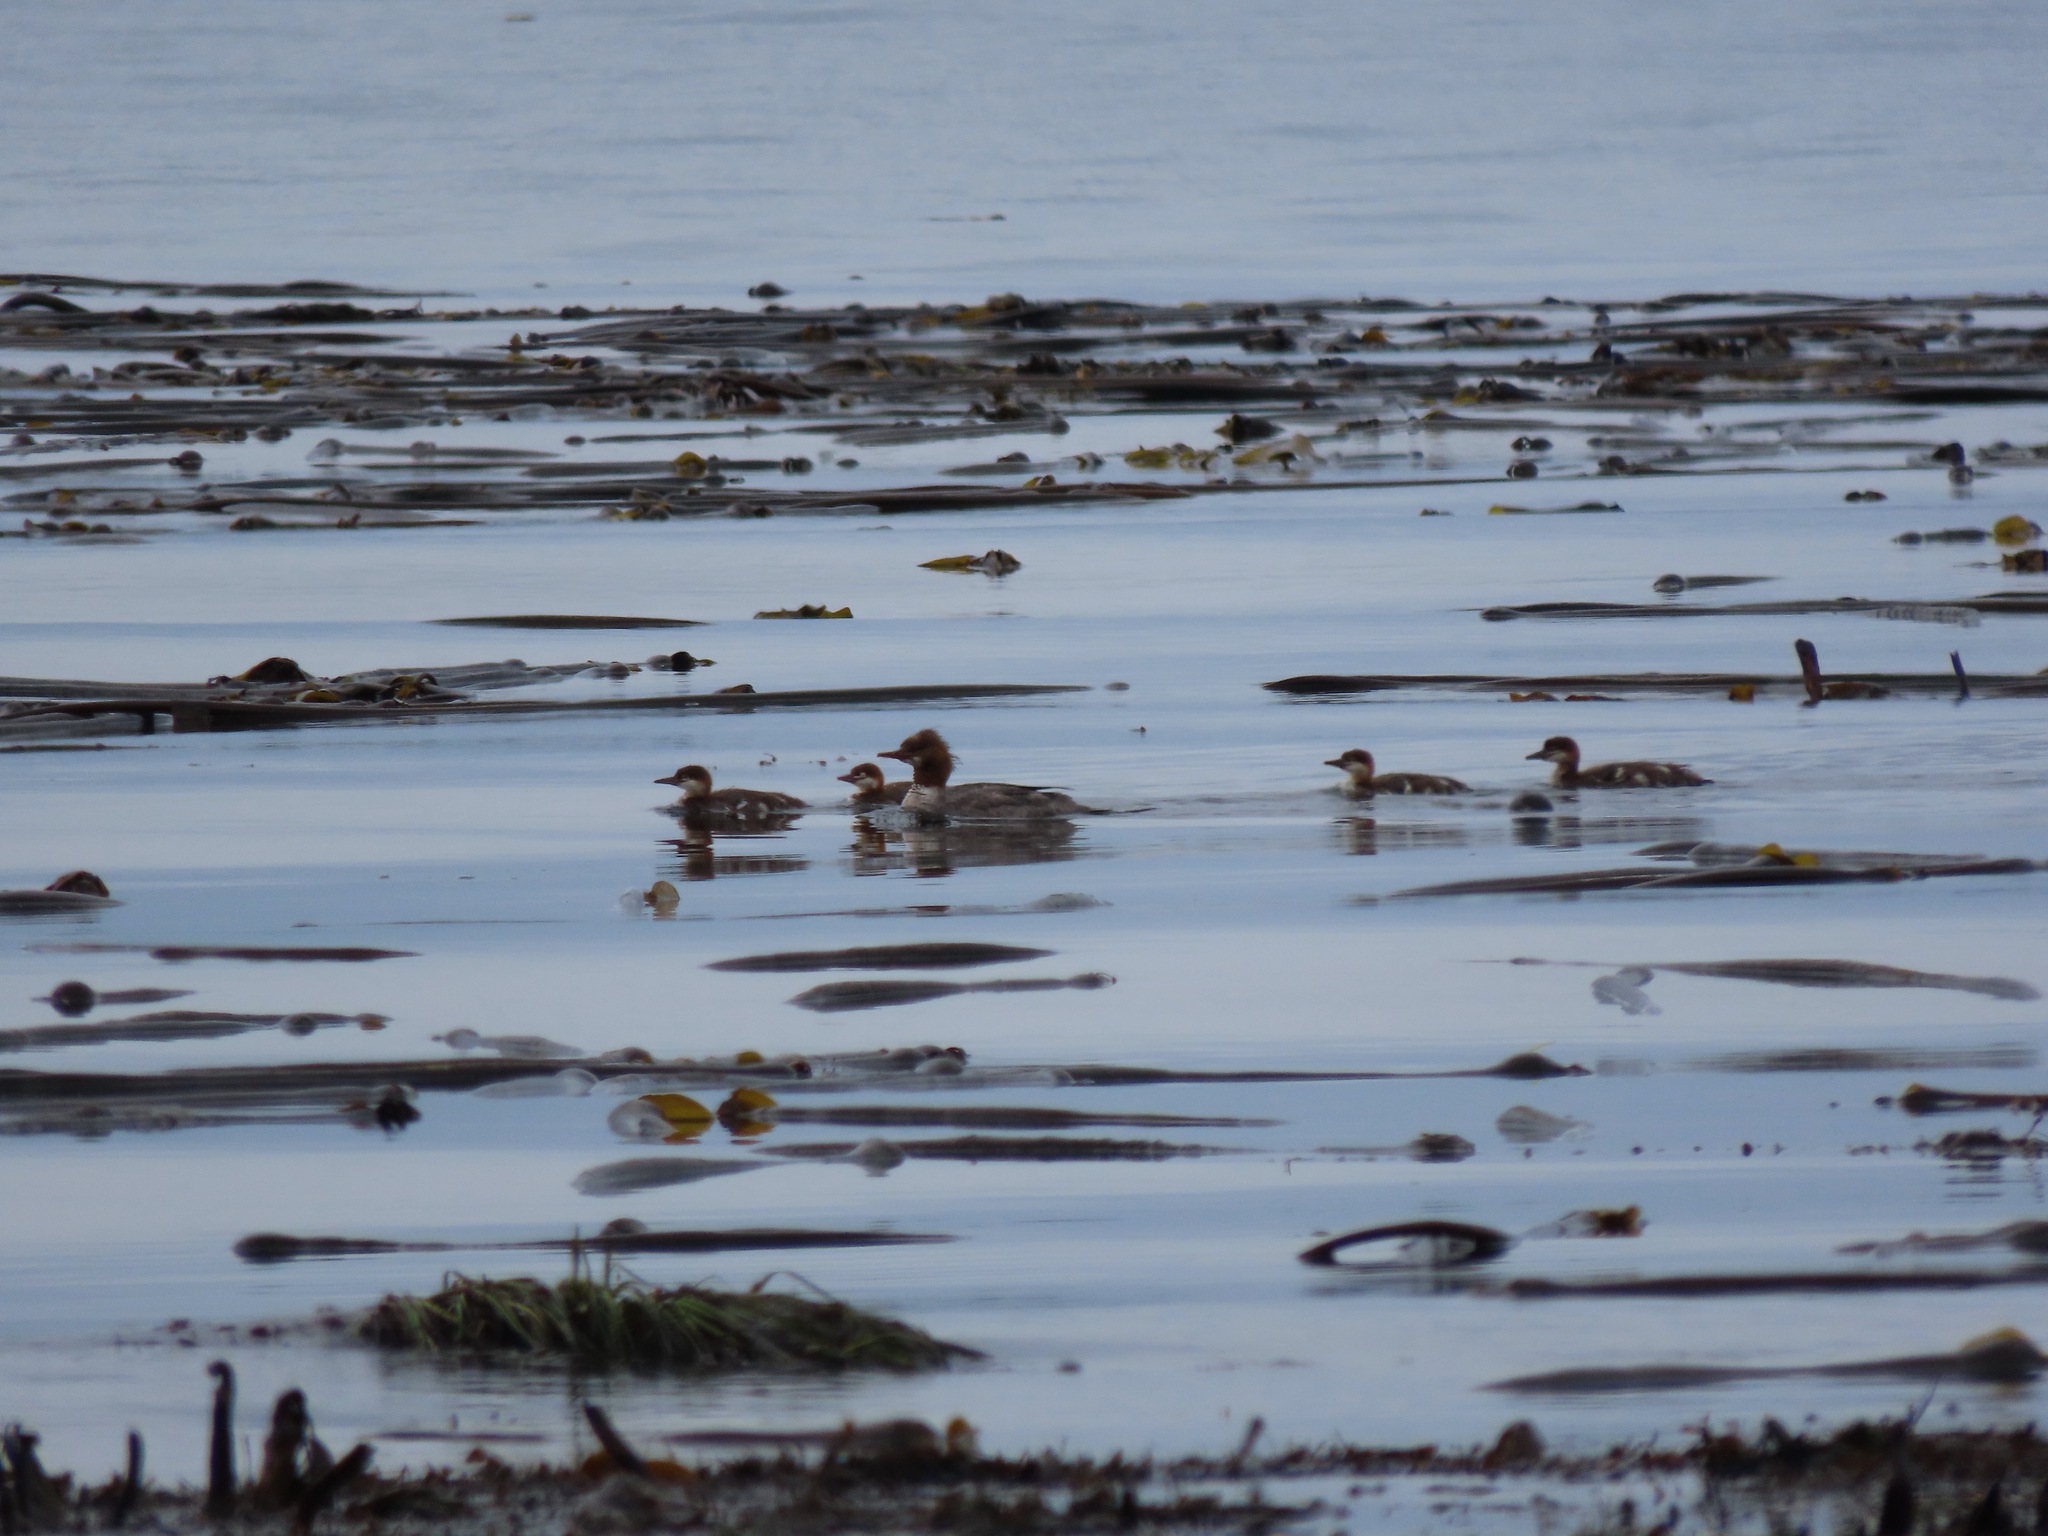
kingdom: Animalia
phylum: Chordata
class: Aves
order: Anseriformes
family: Anatidae
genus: Mergus
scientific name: Mergus merganser
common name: Common merganser
